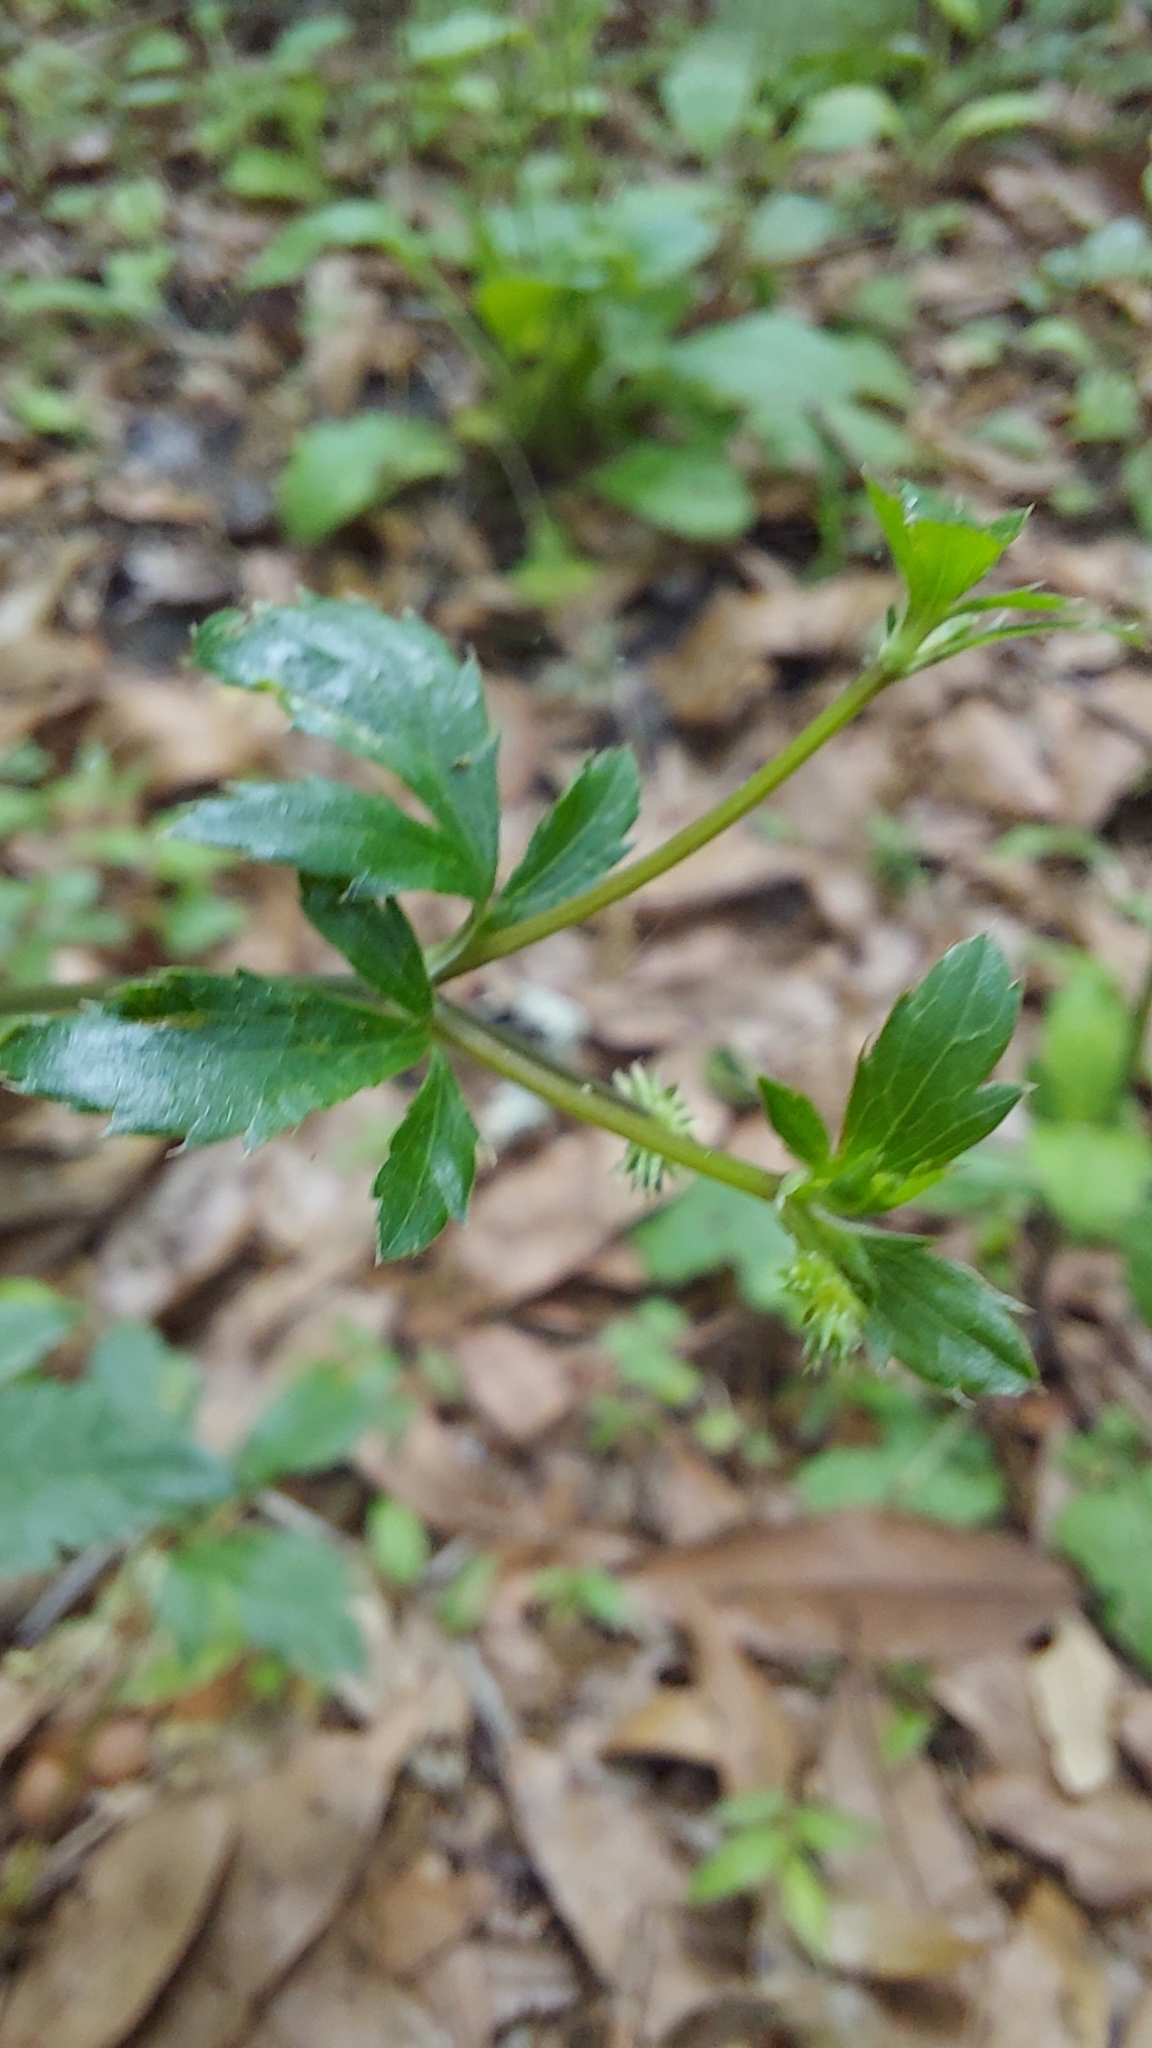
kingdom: Plantae
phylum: Tracheophyta
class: Magnoliopsida
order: Apiales
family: Apiaceae
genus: Sanicula
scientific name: Sanicula canadensis
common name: Canada sanicle
